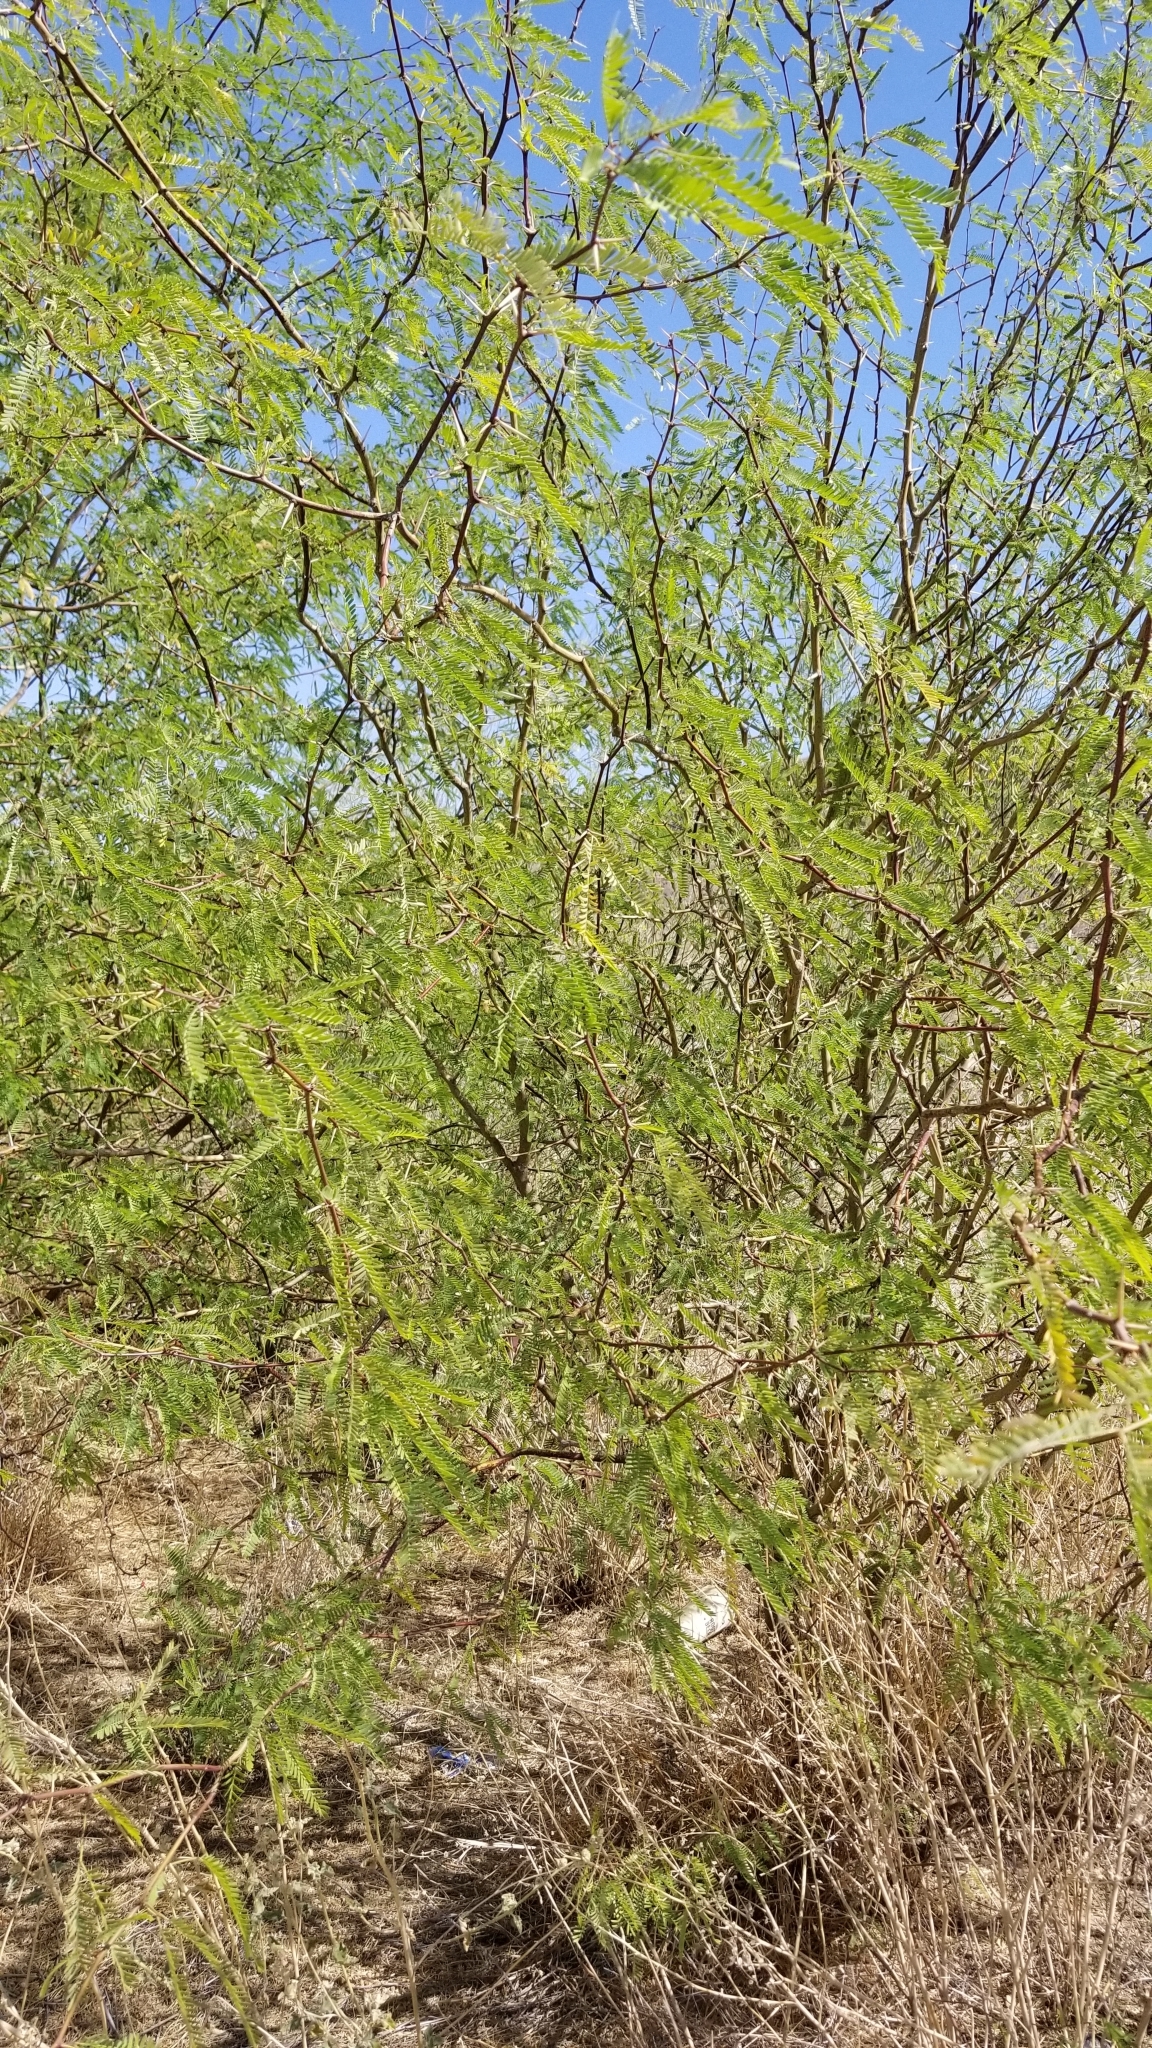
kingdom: Plantae
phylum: Tracheophyta
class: Magnoliopsida
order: Fabales
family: Fabaceae
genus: Prosopis
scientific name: Prosopis velutina
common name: Velvet mesquite
